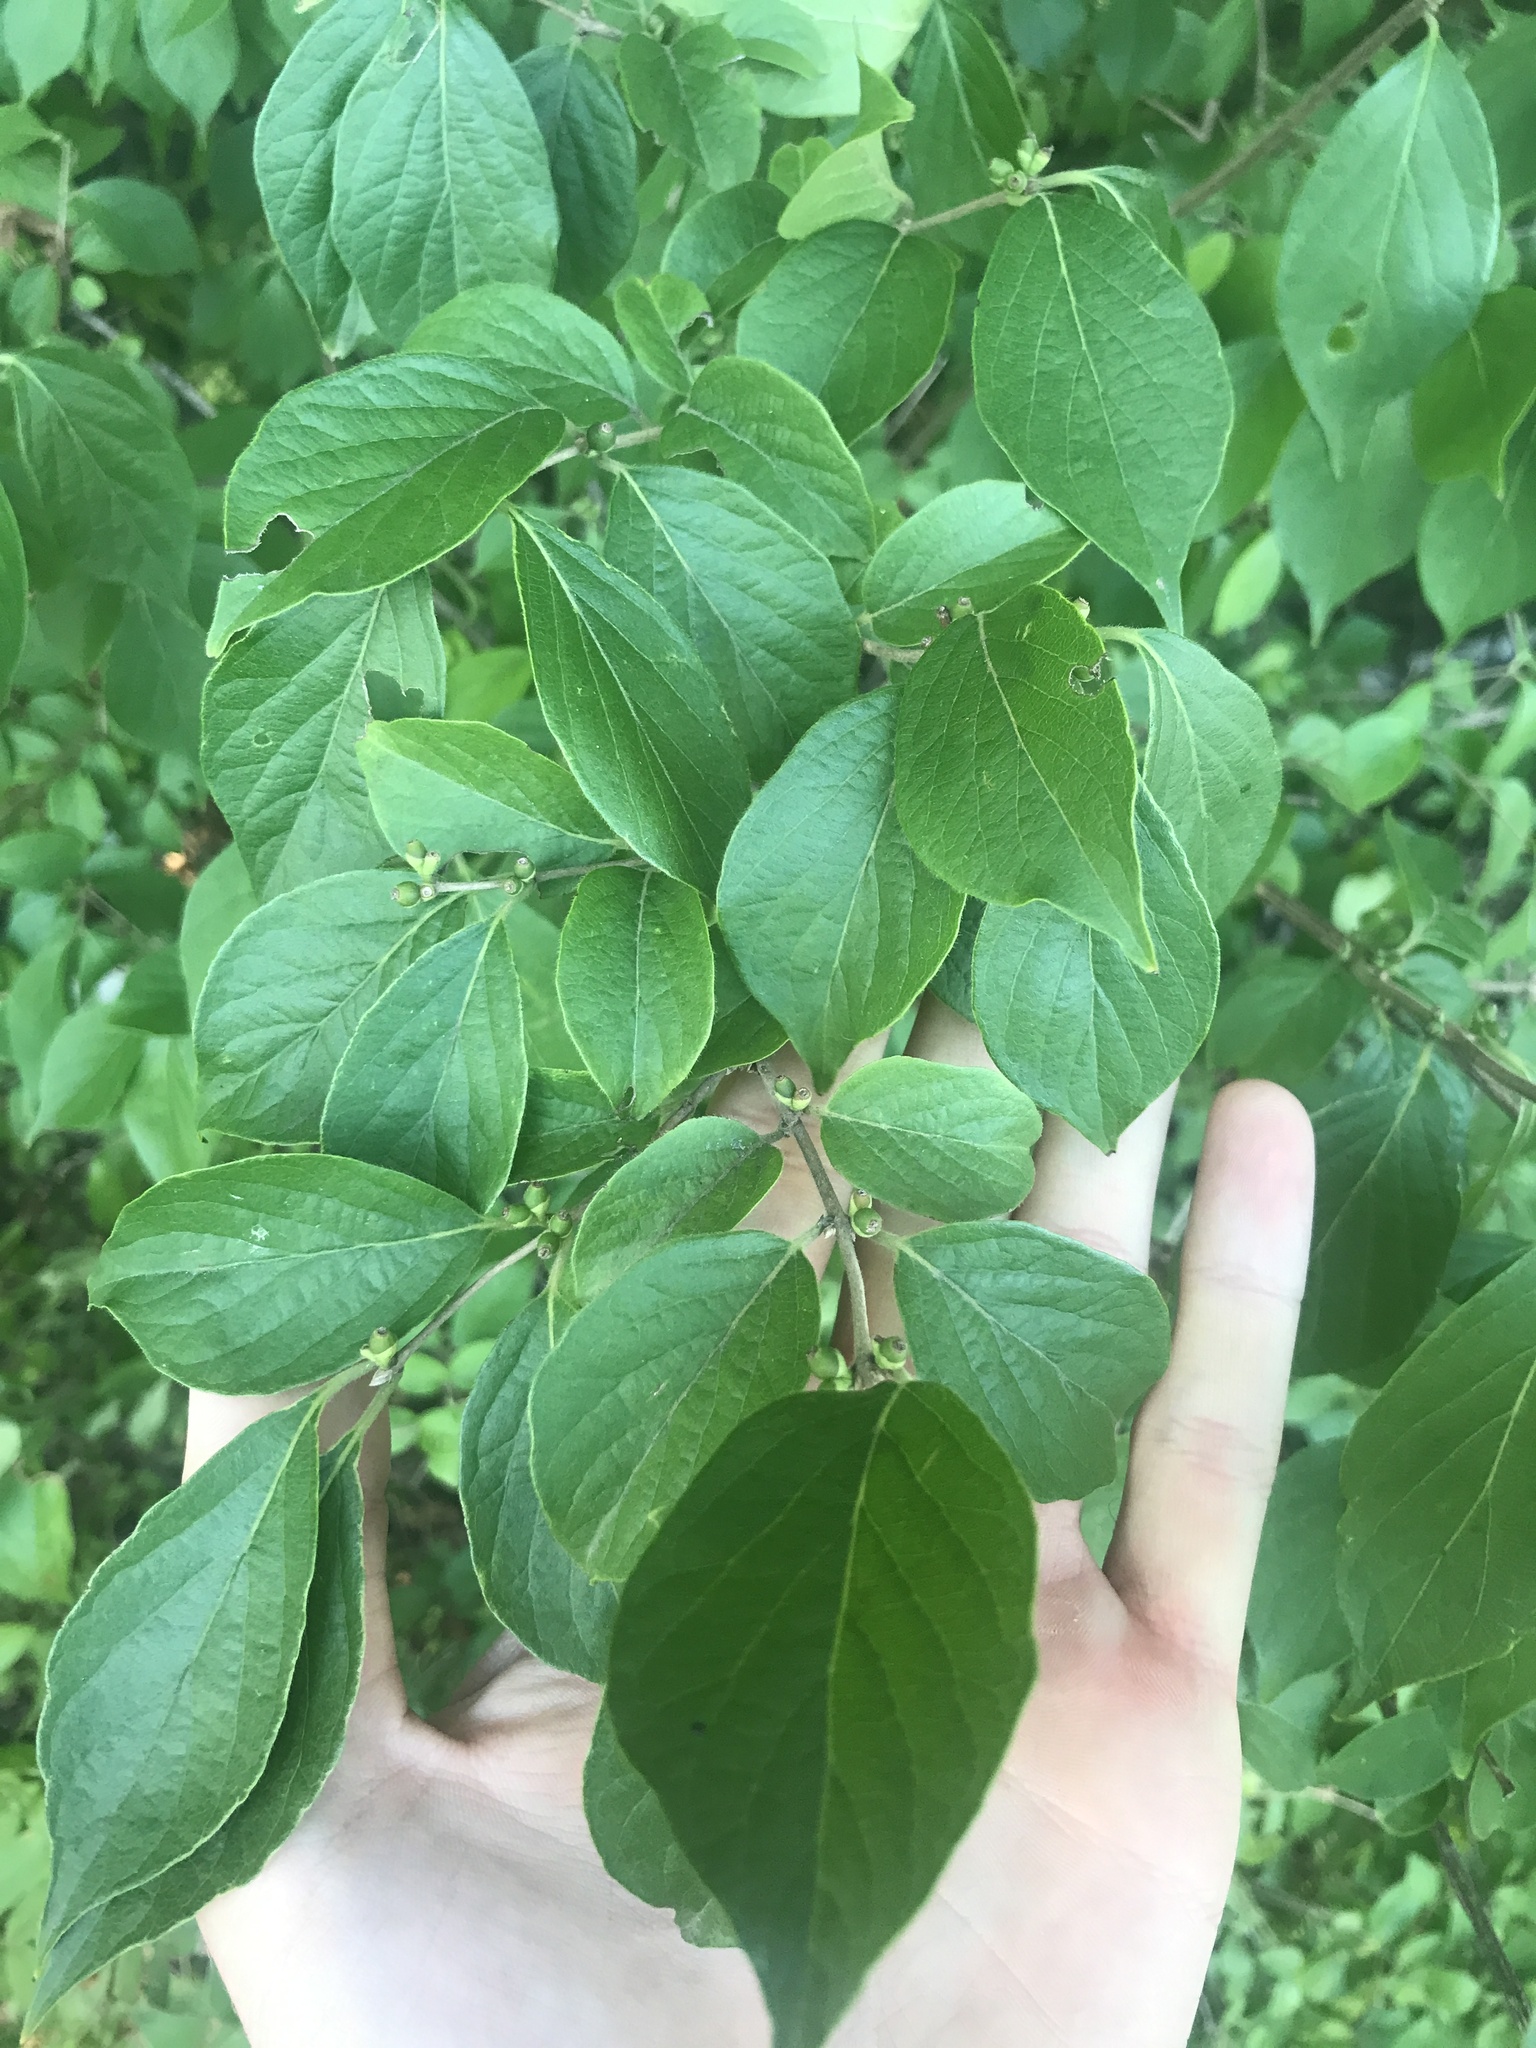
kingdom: Plantae
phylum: Tracheophyta
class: Magnoliopsida
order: Dipsacales
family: Caprifoliaceae
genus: Lonicera
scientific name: Lonicera maackii
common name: Amur honeysuckle
